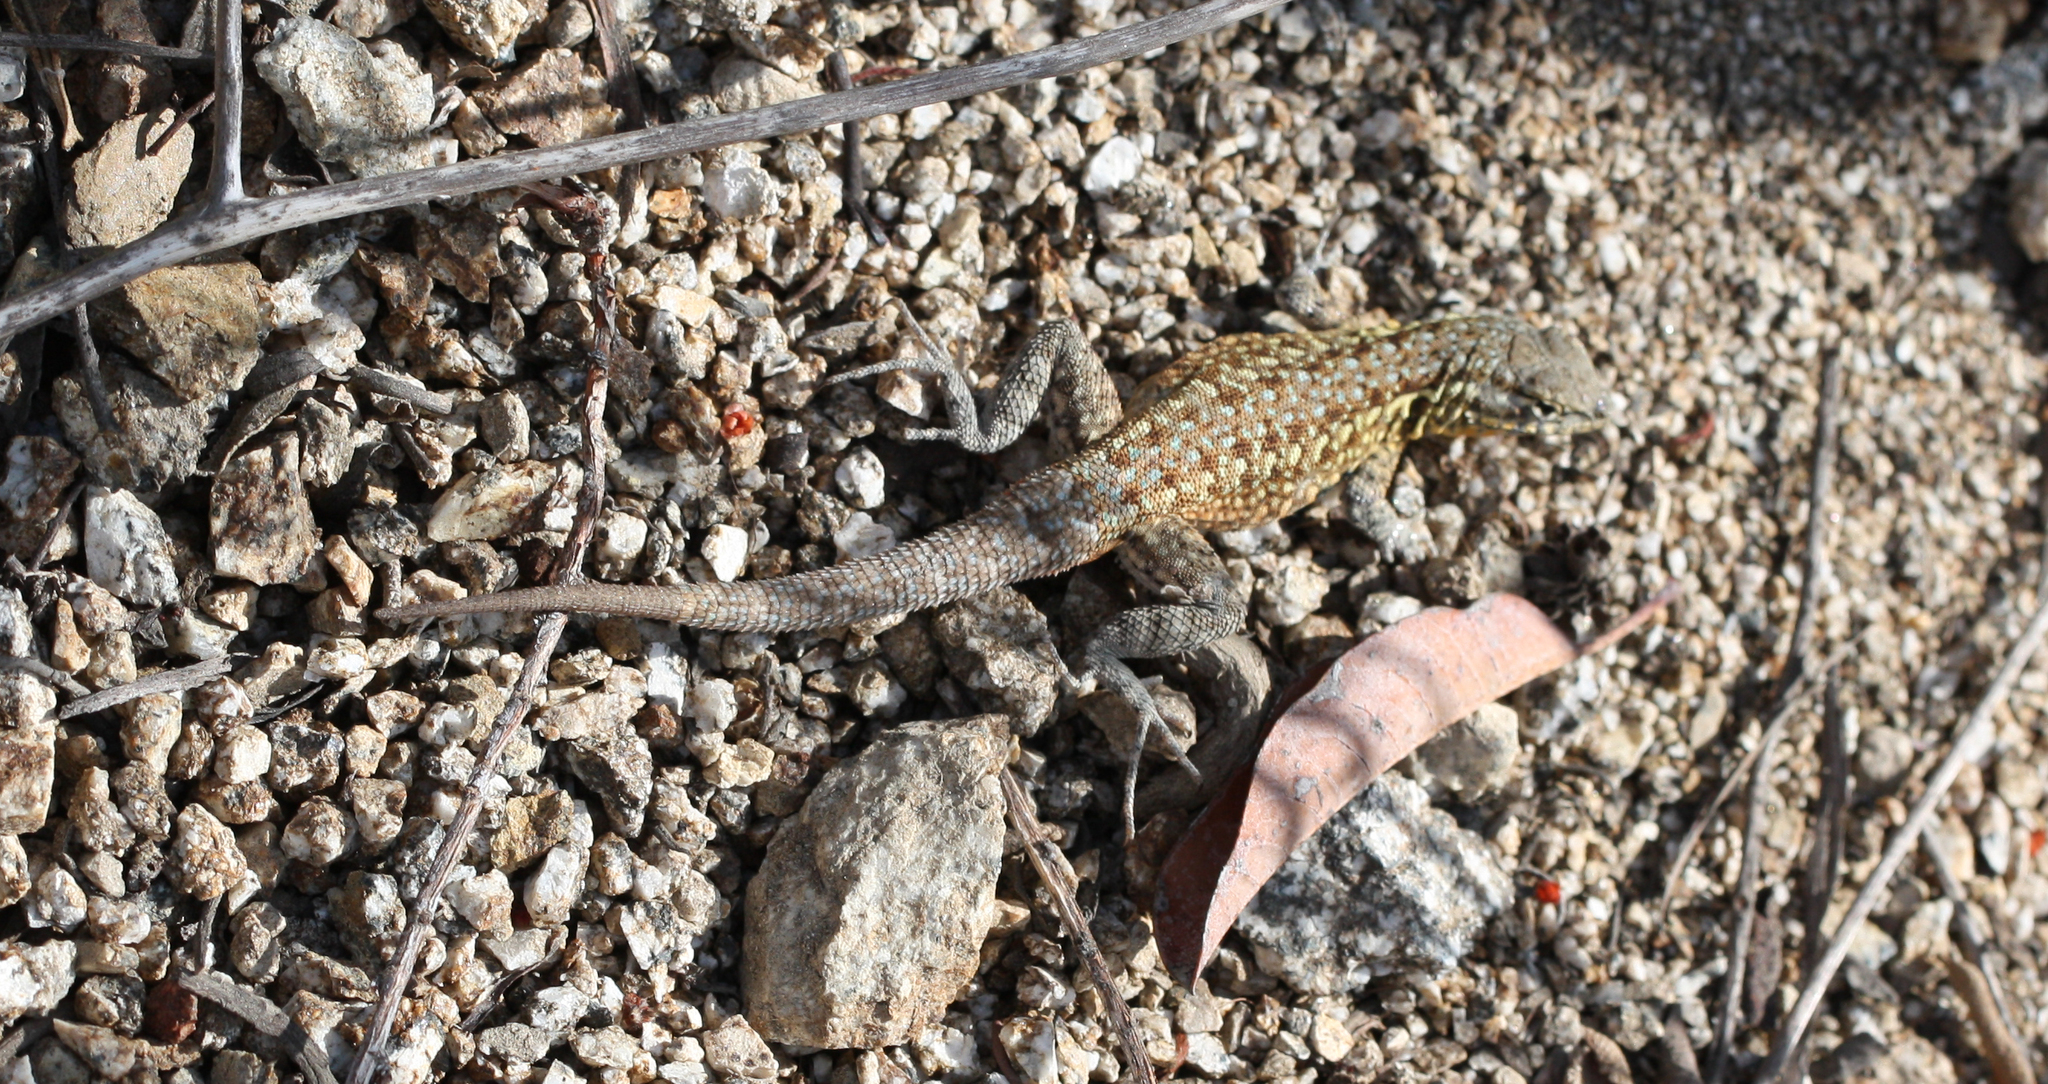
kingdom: Animalia
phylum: Chordata
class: Squamata
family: Phrynosomatidae
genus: Uta
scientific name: Uta stansburiana
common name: Side-blotched lizard
